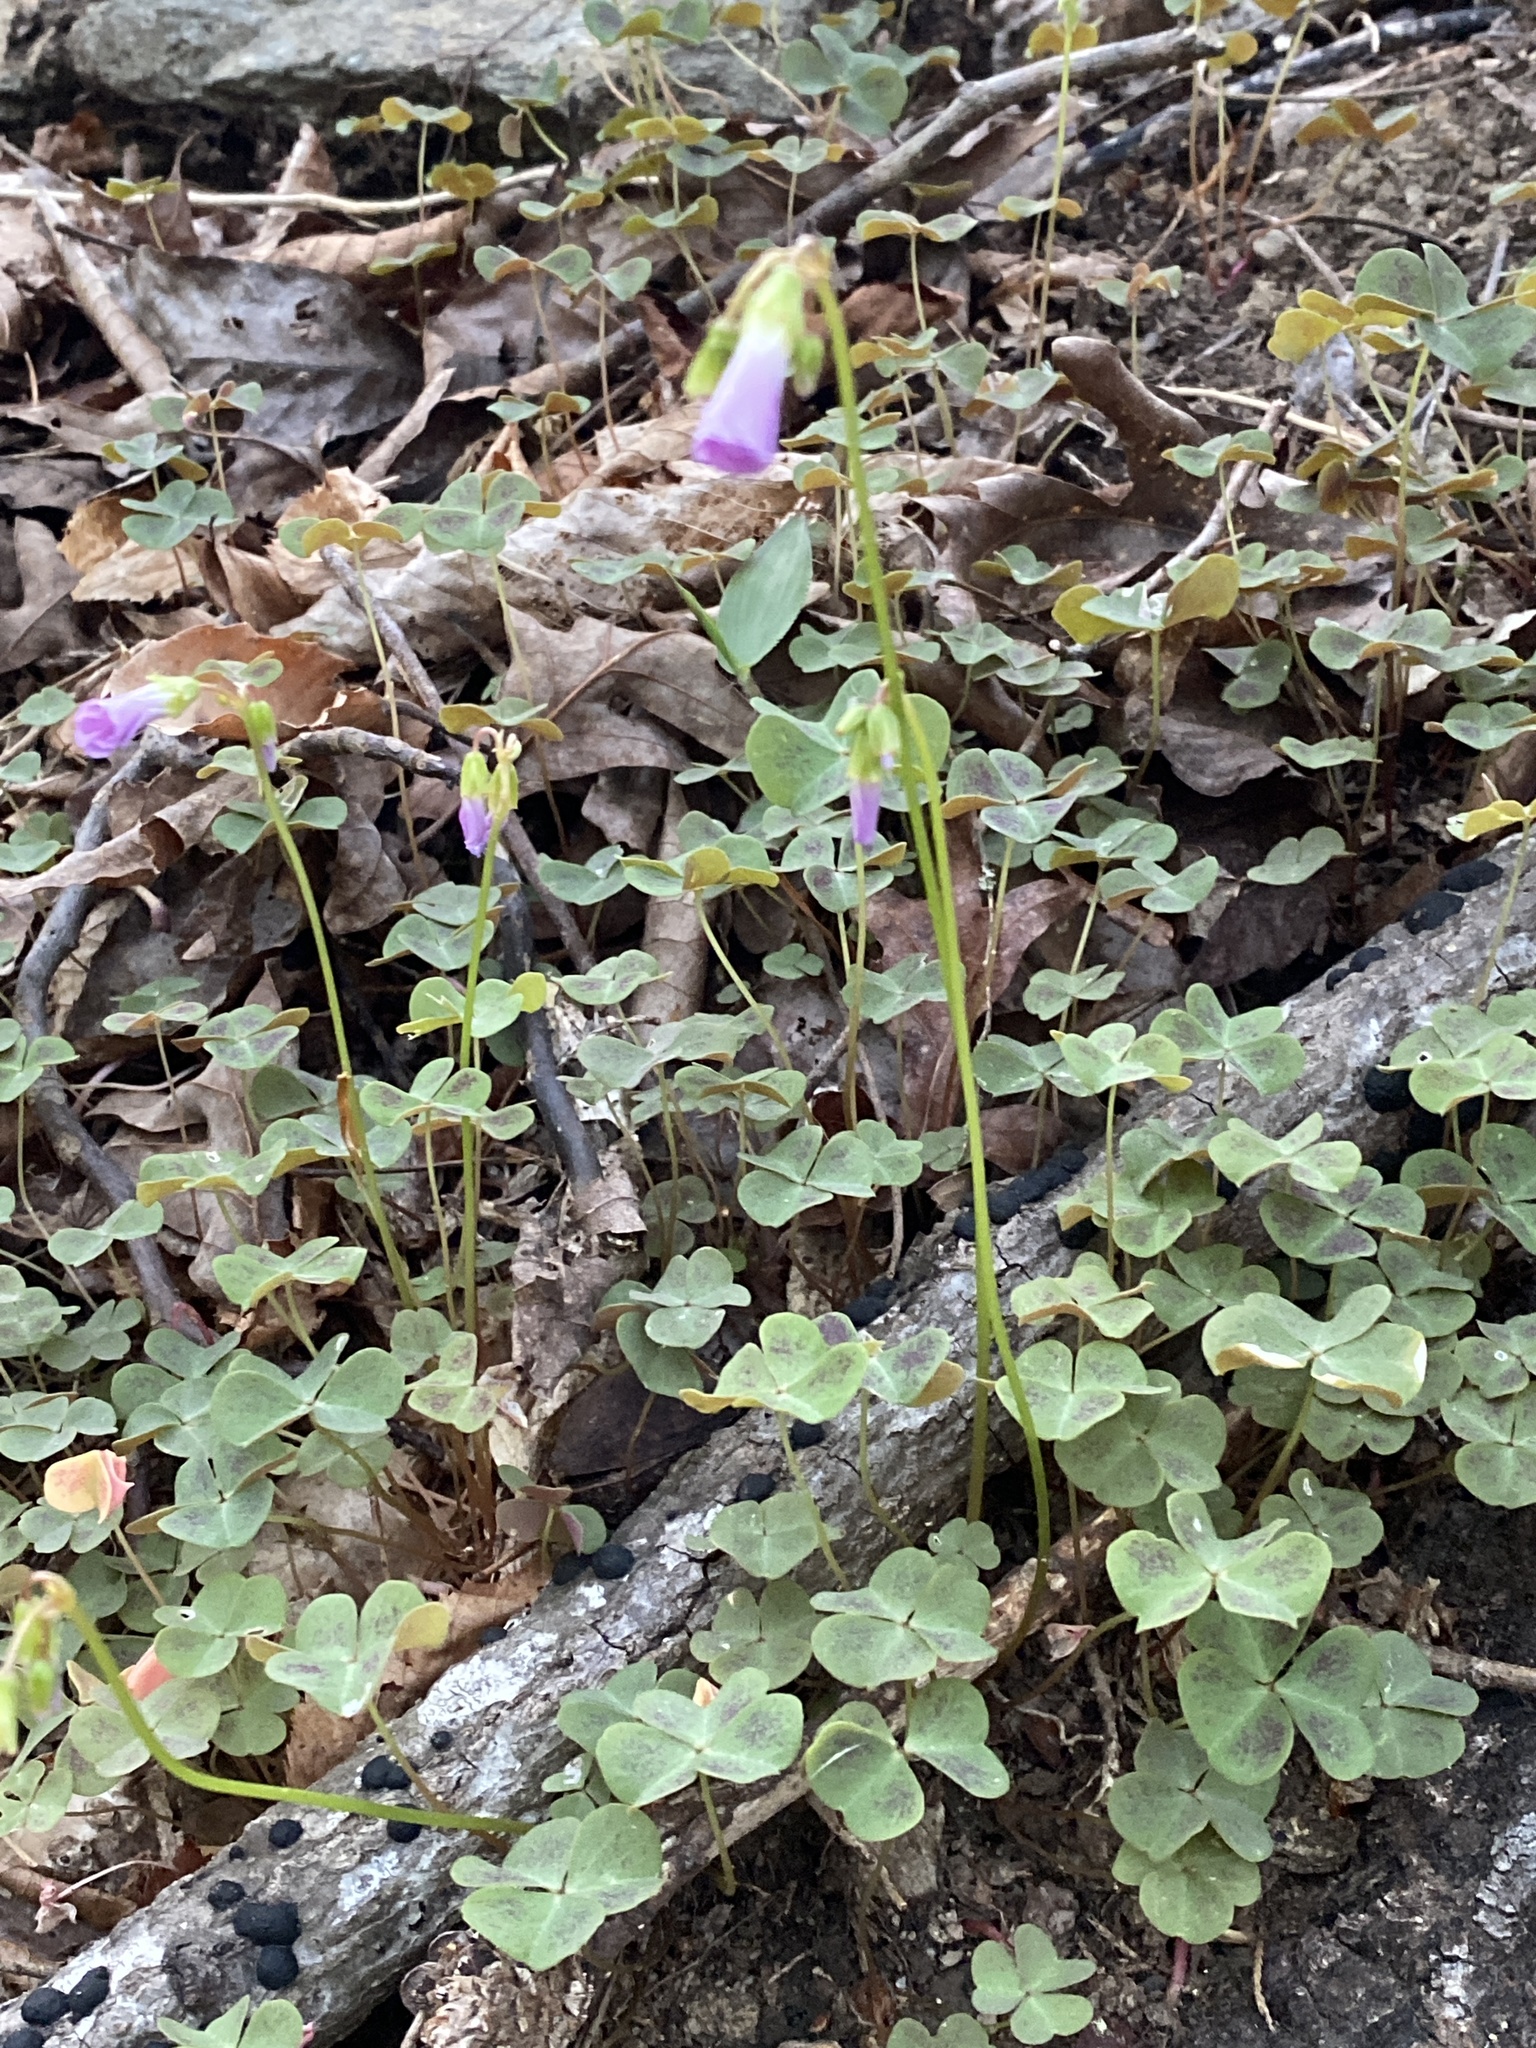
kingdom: Plantae
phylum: Tracheophyta
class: Magnoliopsida
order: Oxalidales
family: Oxalidaceae
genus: Oxalis
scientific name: Oxalis violacea
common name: Violet wood-sorrel
